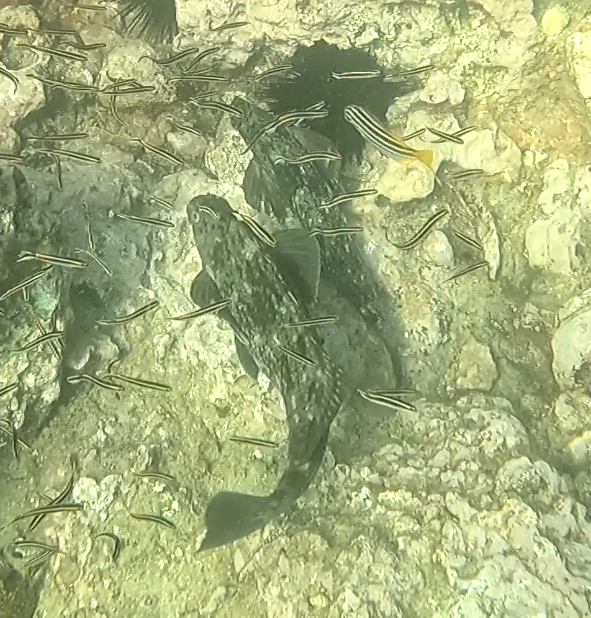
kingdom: Animalia
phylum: Chordata
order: Perciformes
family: Aplodactylidae
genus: Aplodactylus
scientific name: Aplodactylus lophodon
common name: Cockatoo fish
